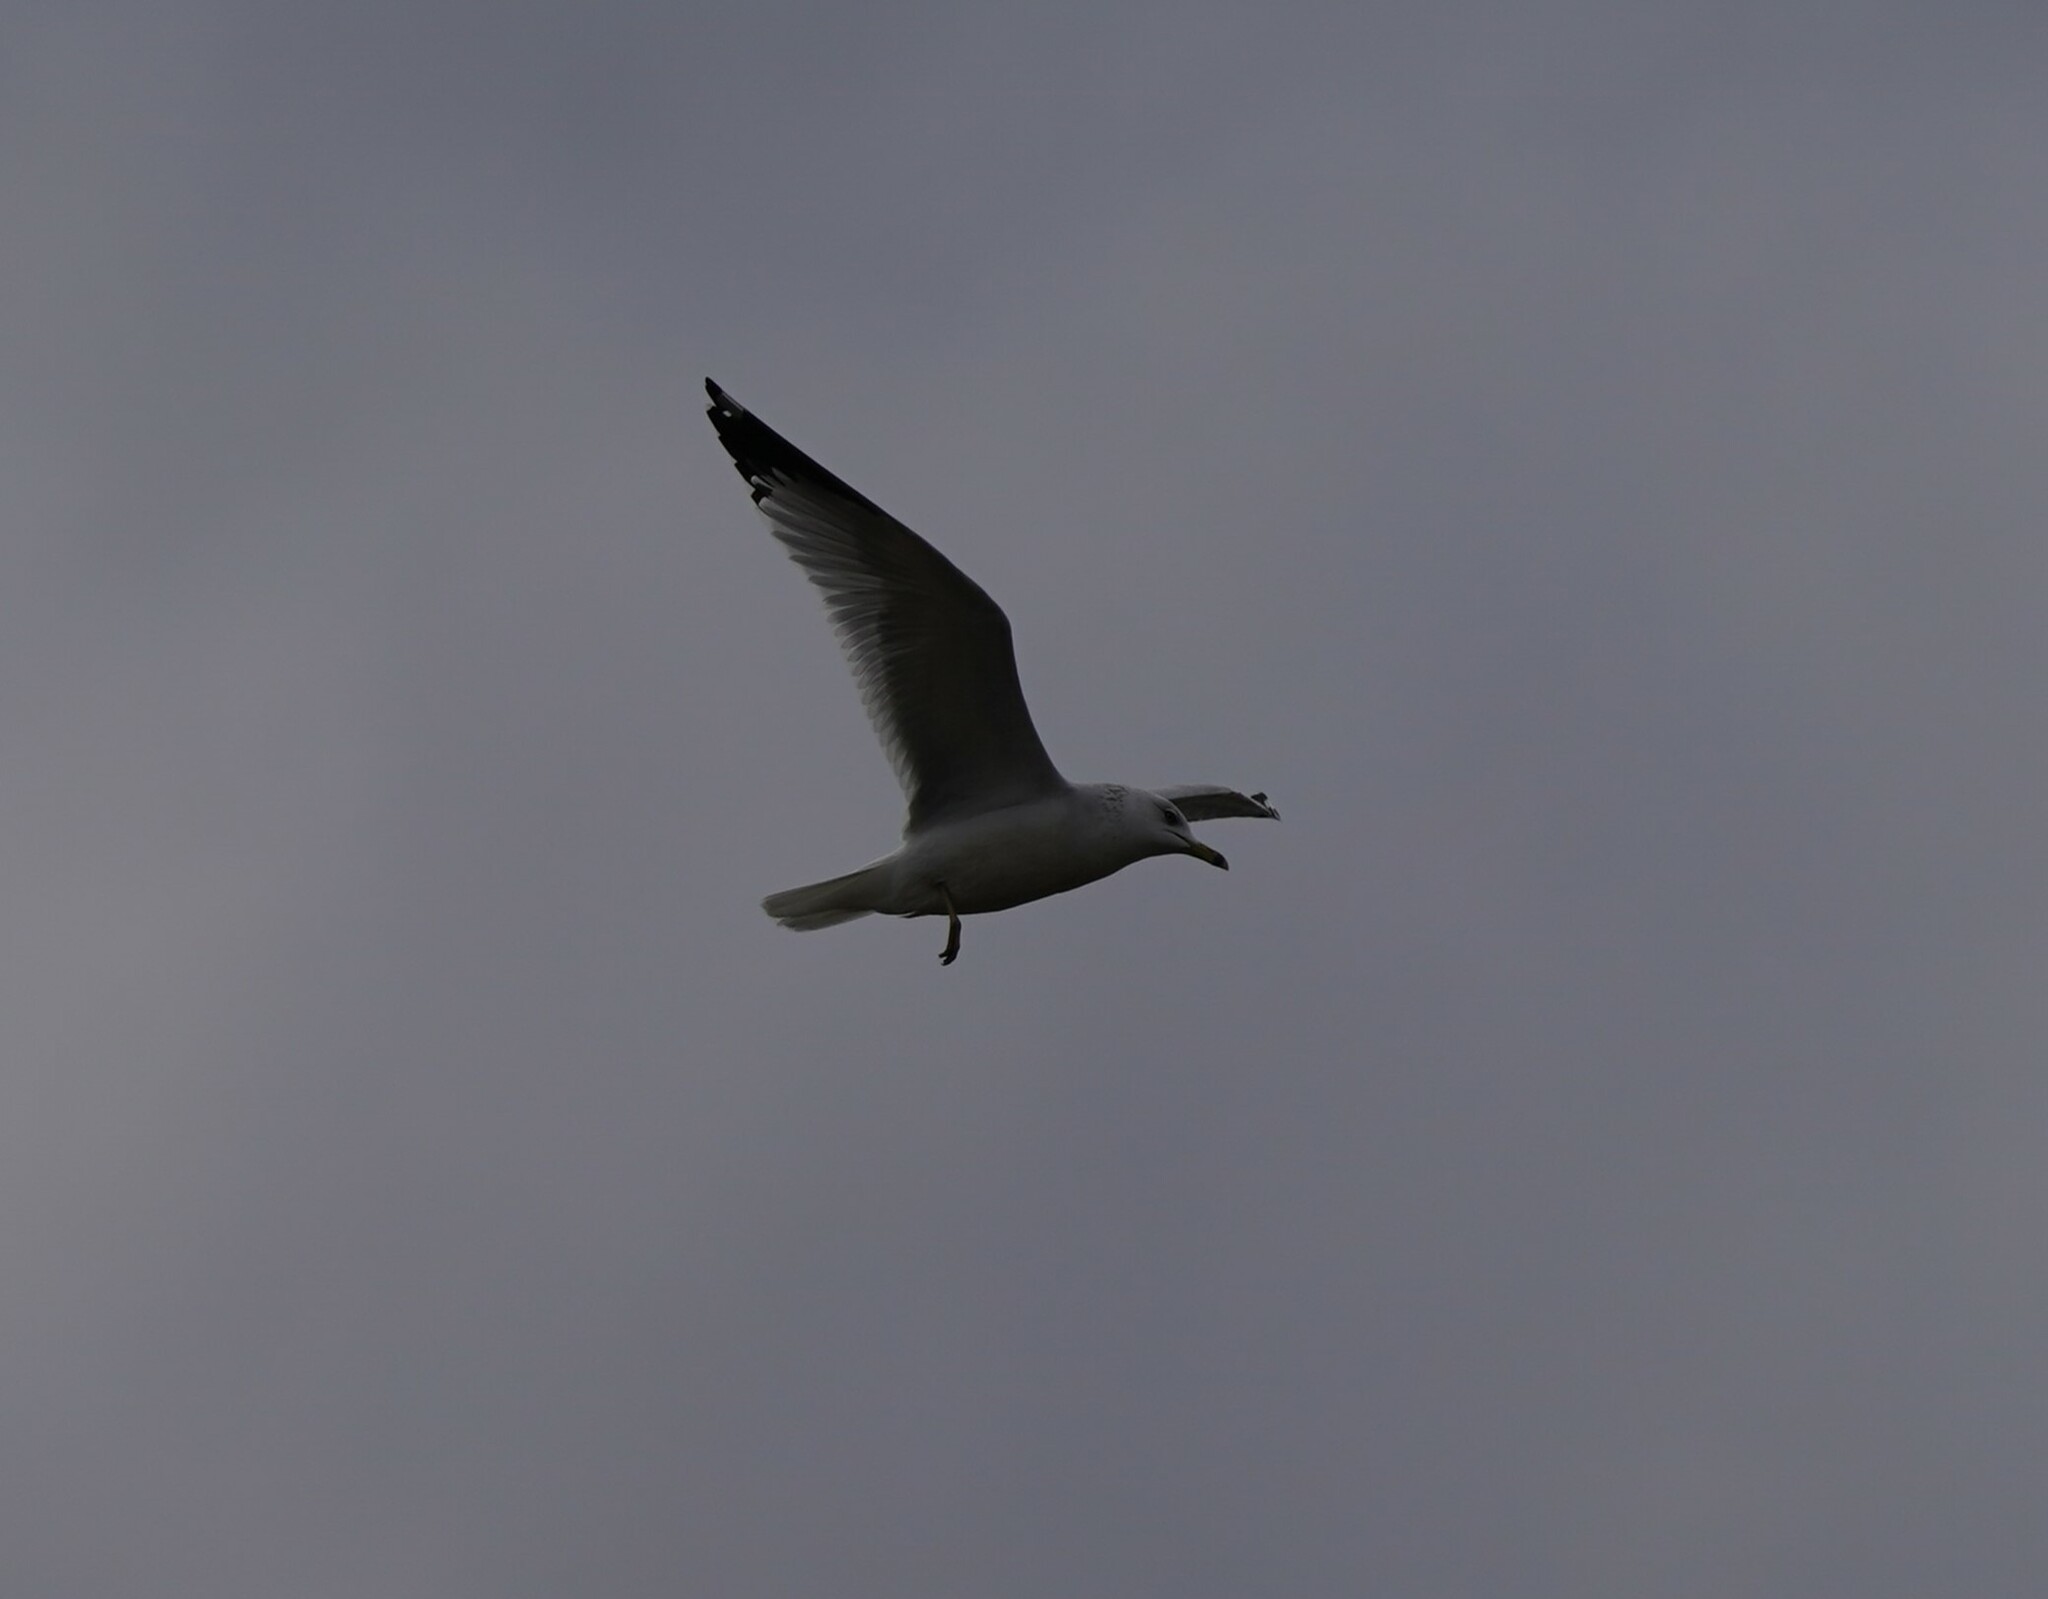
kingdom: Animalia
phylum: Chordata
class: Aves
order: Charadriiformes
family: Laridae
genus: Larus
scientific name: Larus delawarensis
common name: Ring-billed gull
